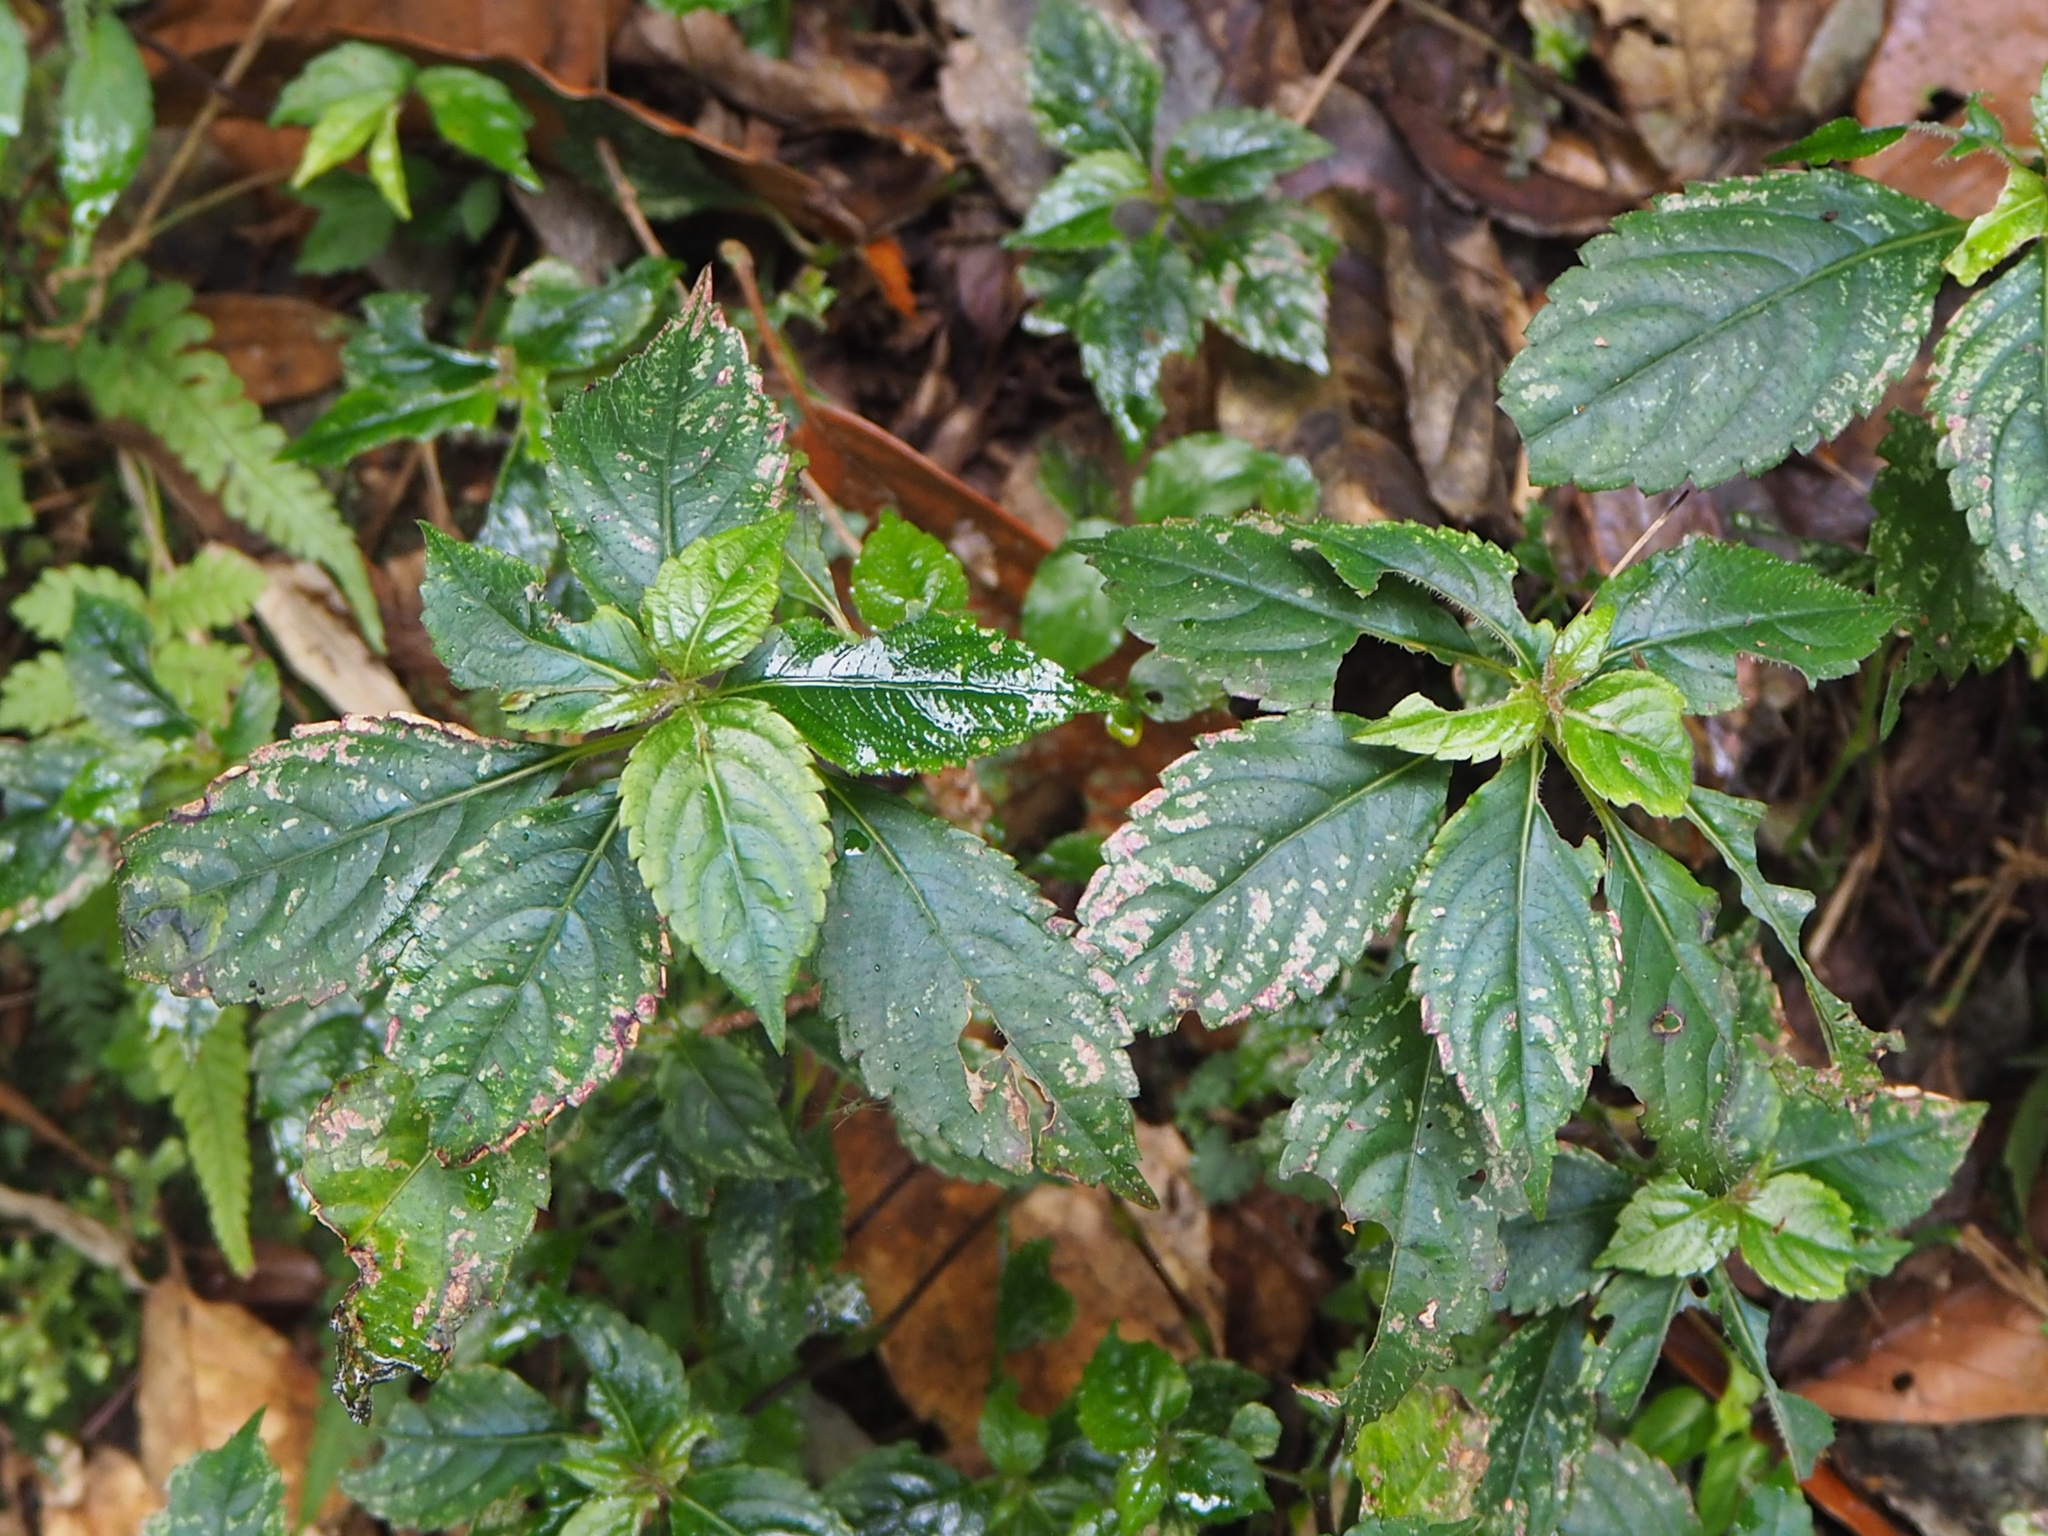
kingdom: Plantae
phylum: Tracheophyta
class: Magnoliopsida
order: Ericales
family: Balsaminaceae
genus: Impatiens
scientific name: Impatiens uniflora
